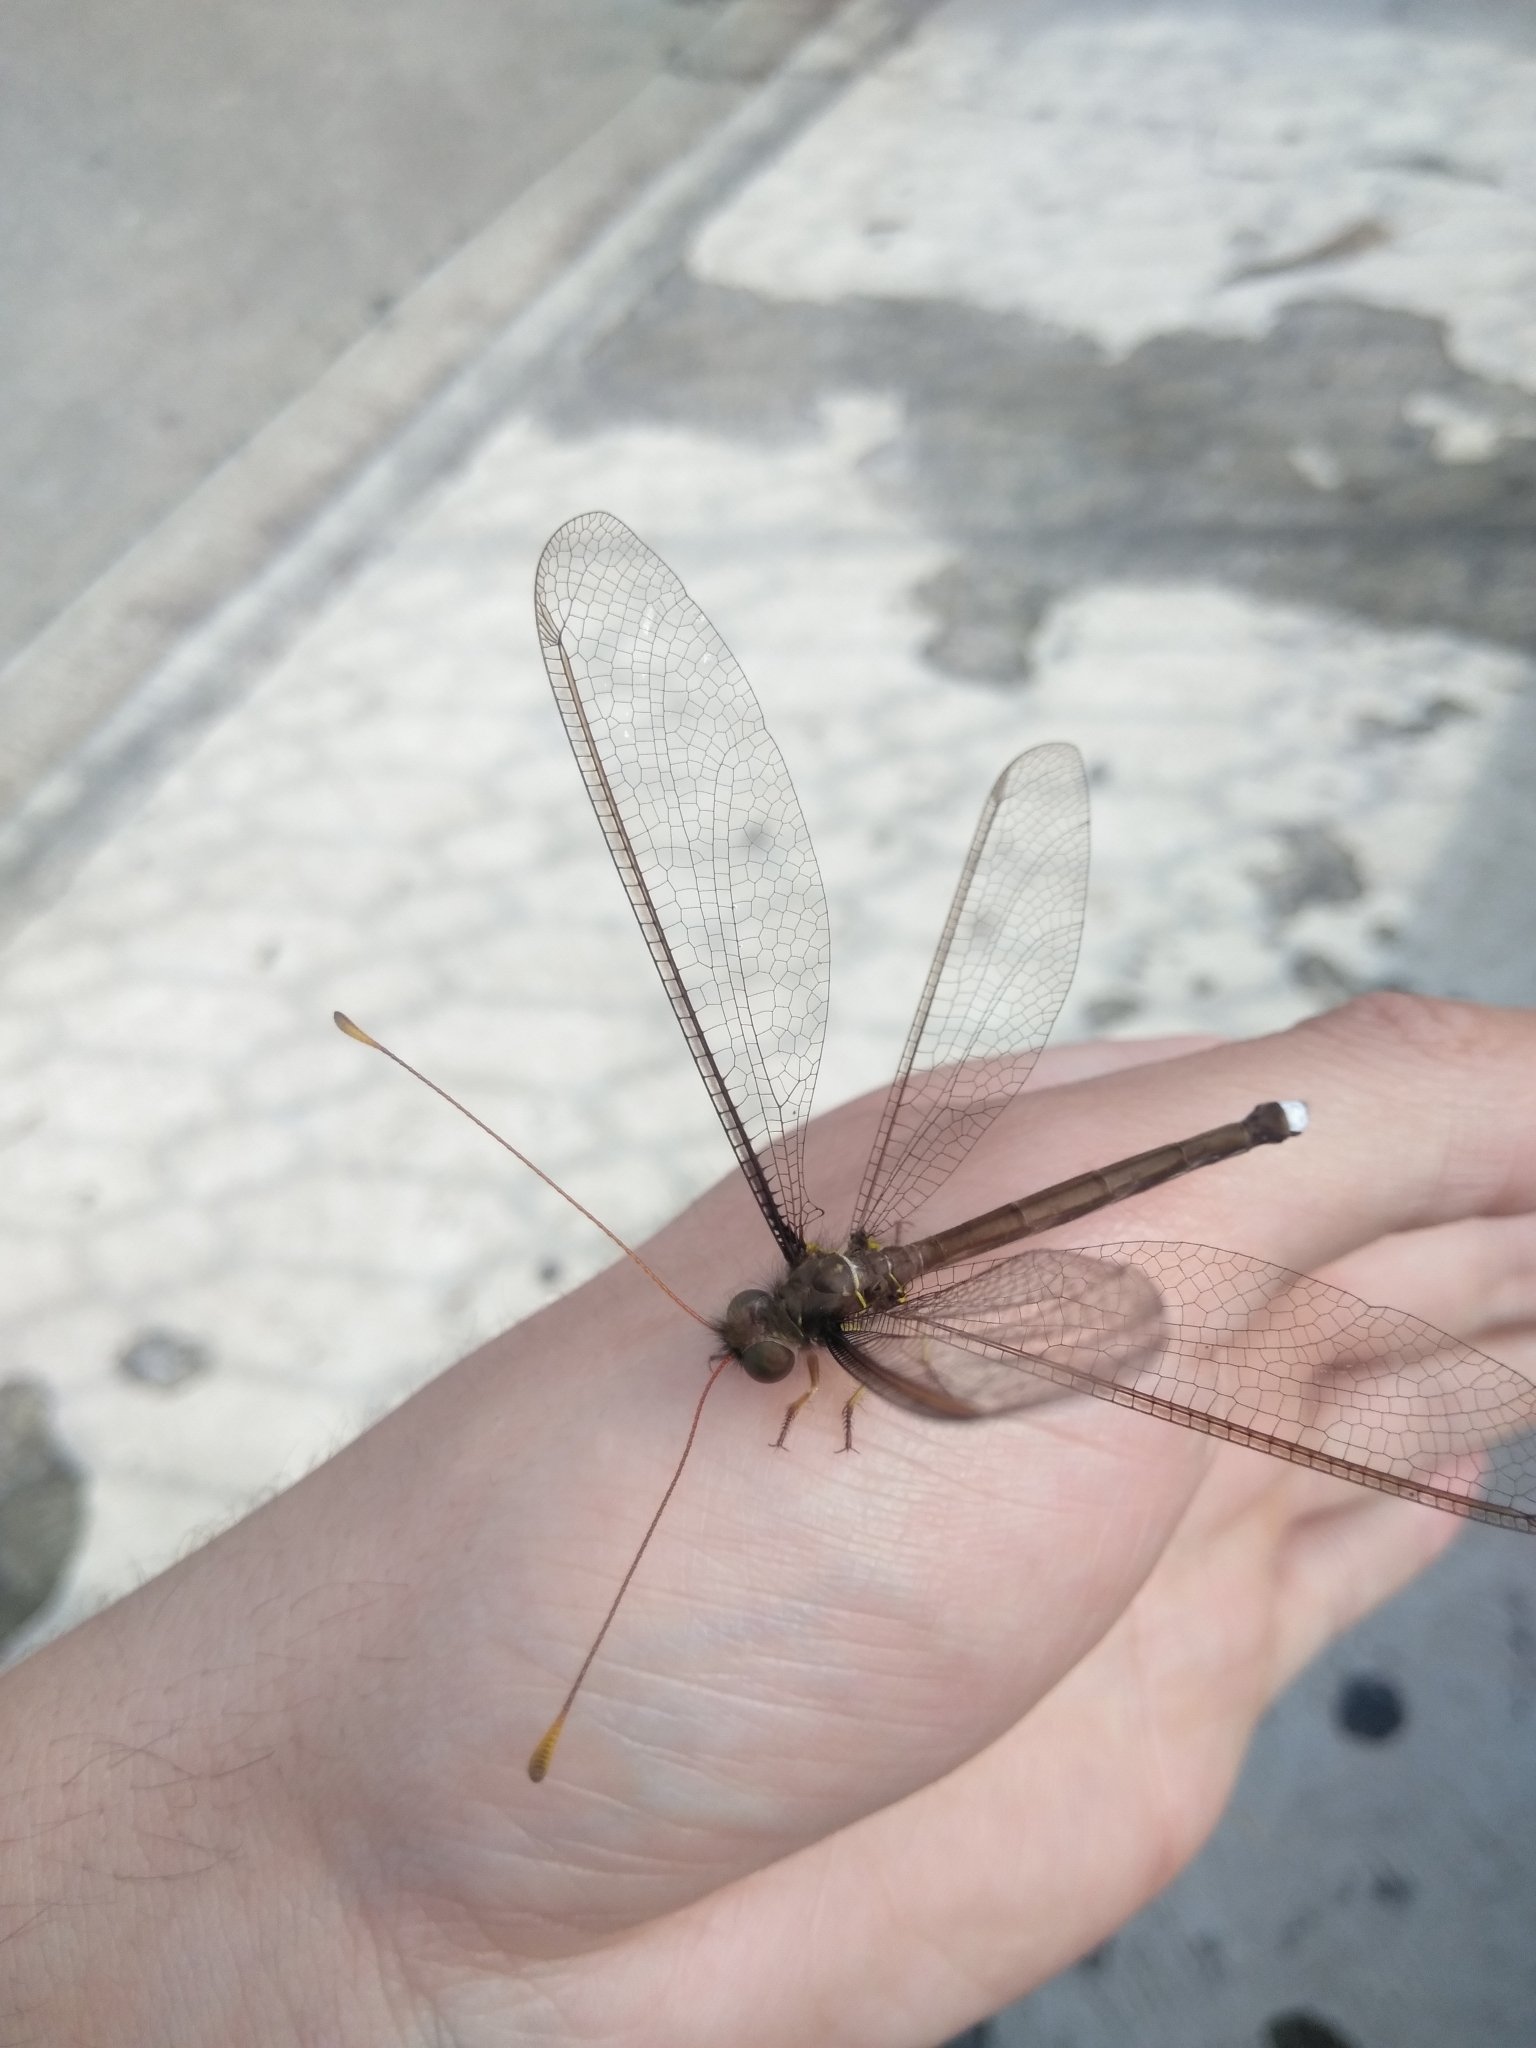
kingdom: Animalia
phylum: Arthropoda
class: Insecta
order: Neuroptera
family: Ascalaphidae
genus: Haploglenius
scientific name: Haploglenius flavicornis
